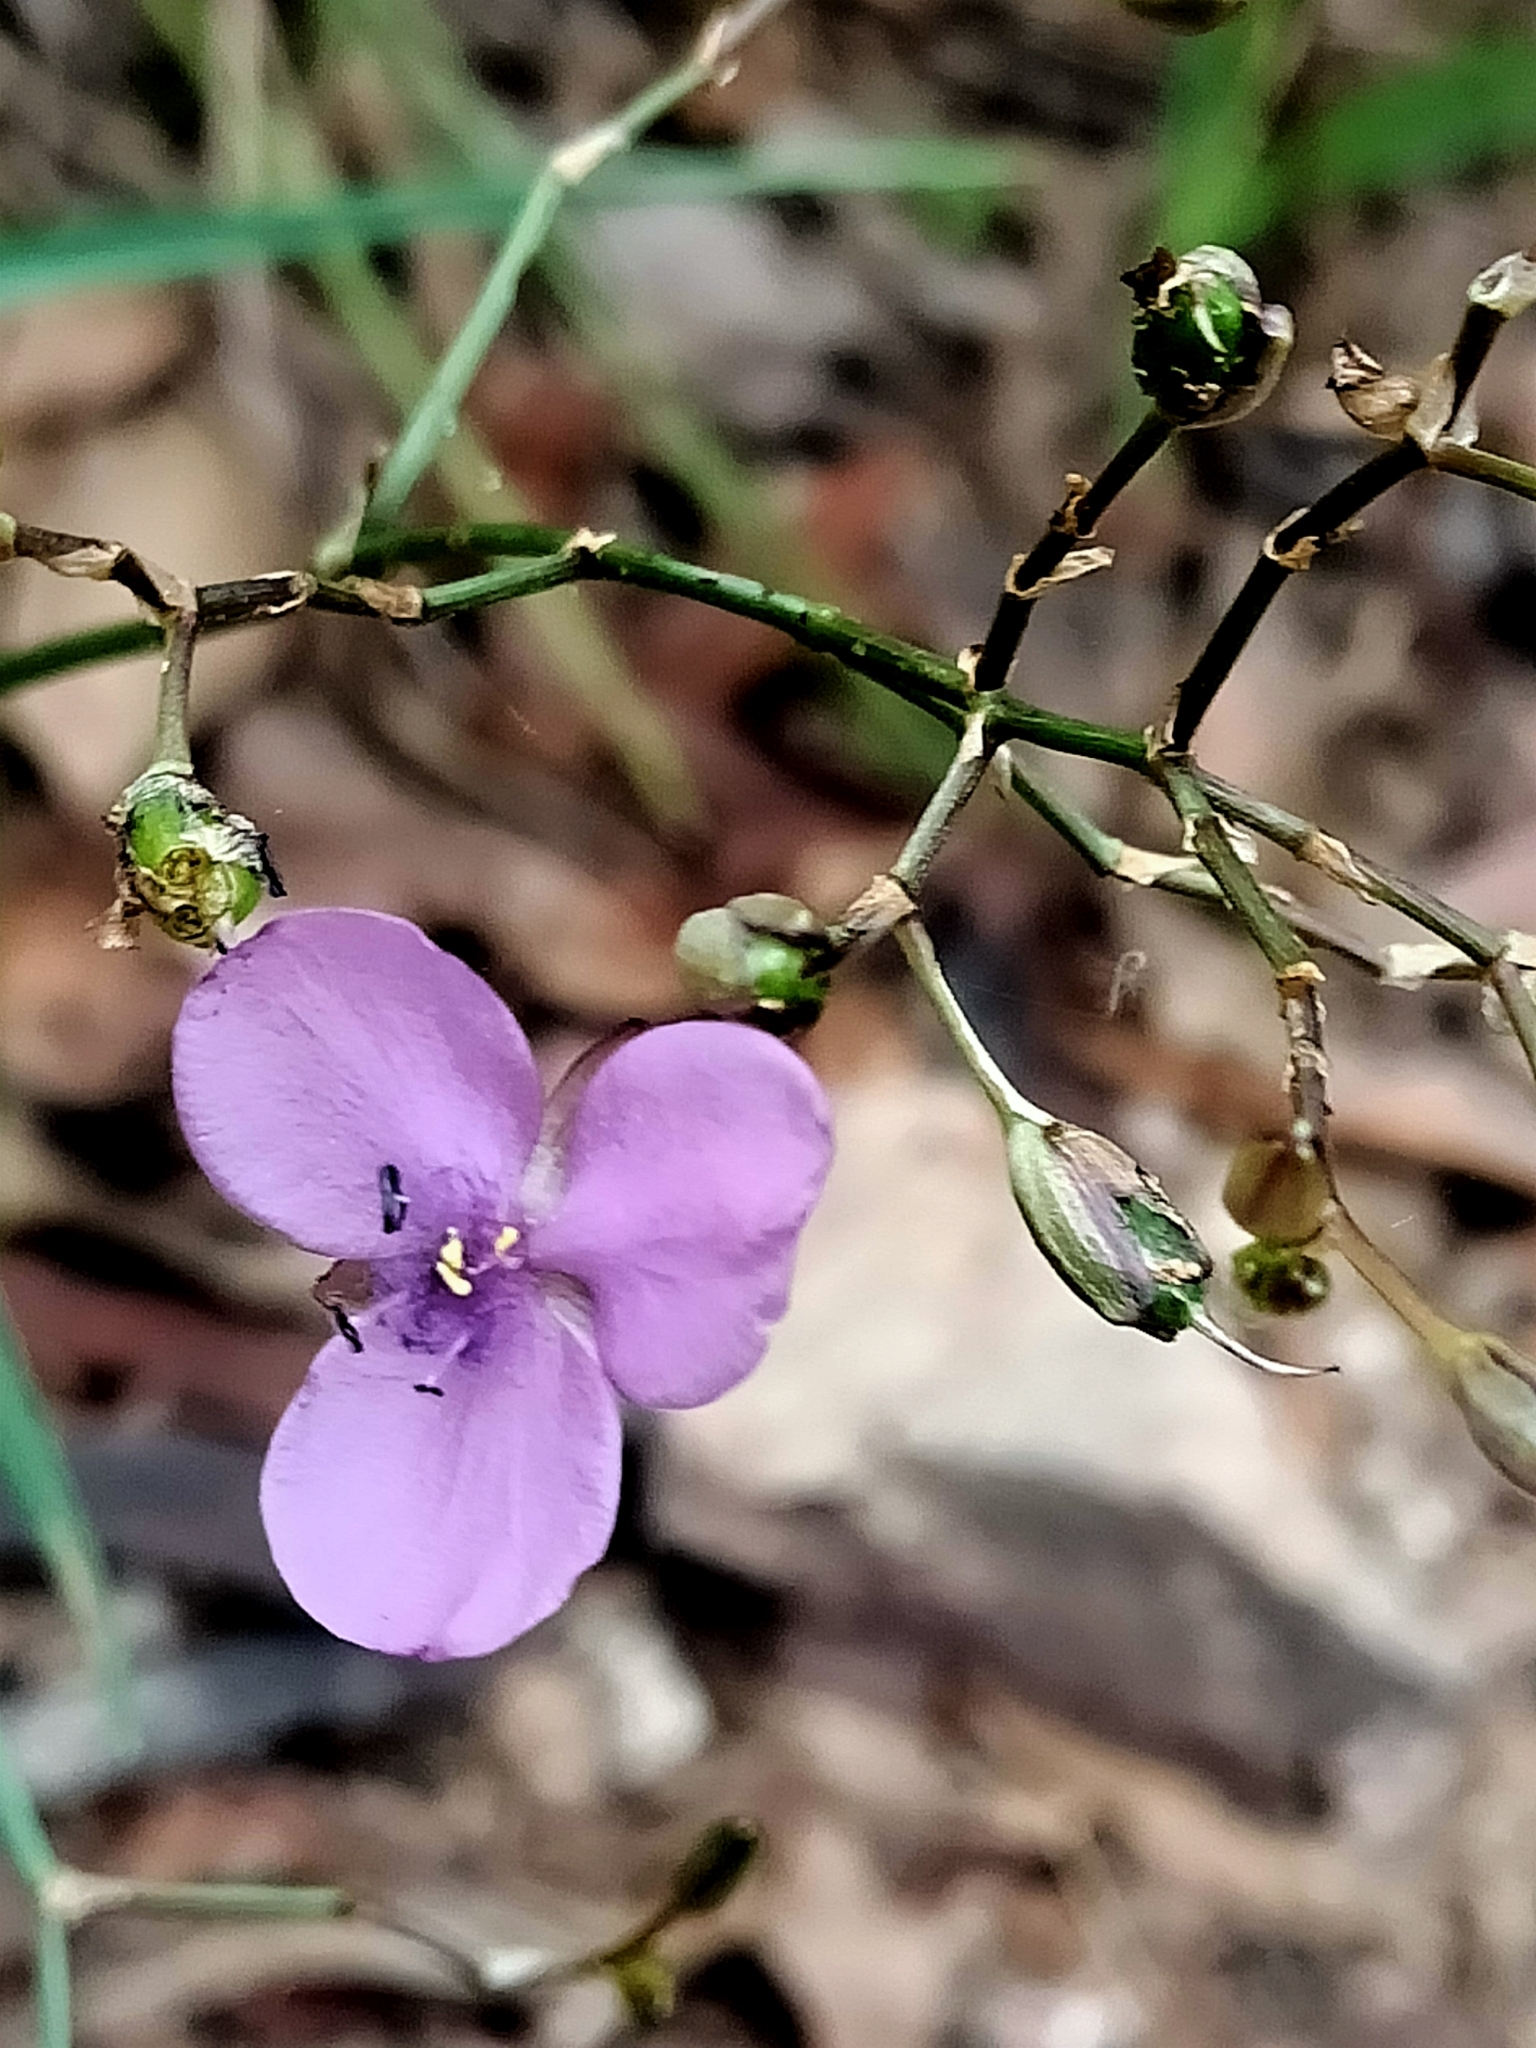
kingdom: Plantae
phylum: Tracheophyta
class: Liliopsida
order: Commelinales
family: Commelinaceae
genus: Murdannia
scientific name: Murdannia graminea
